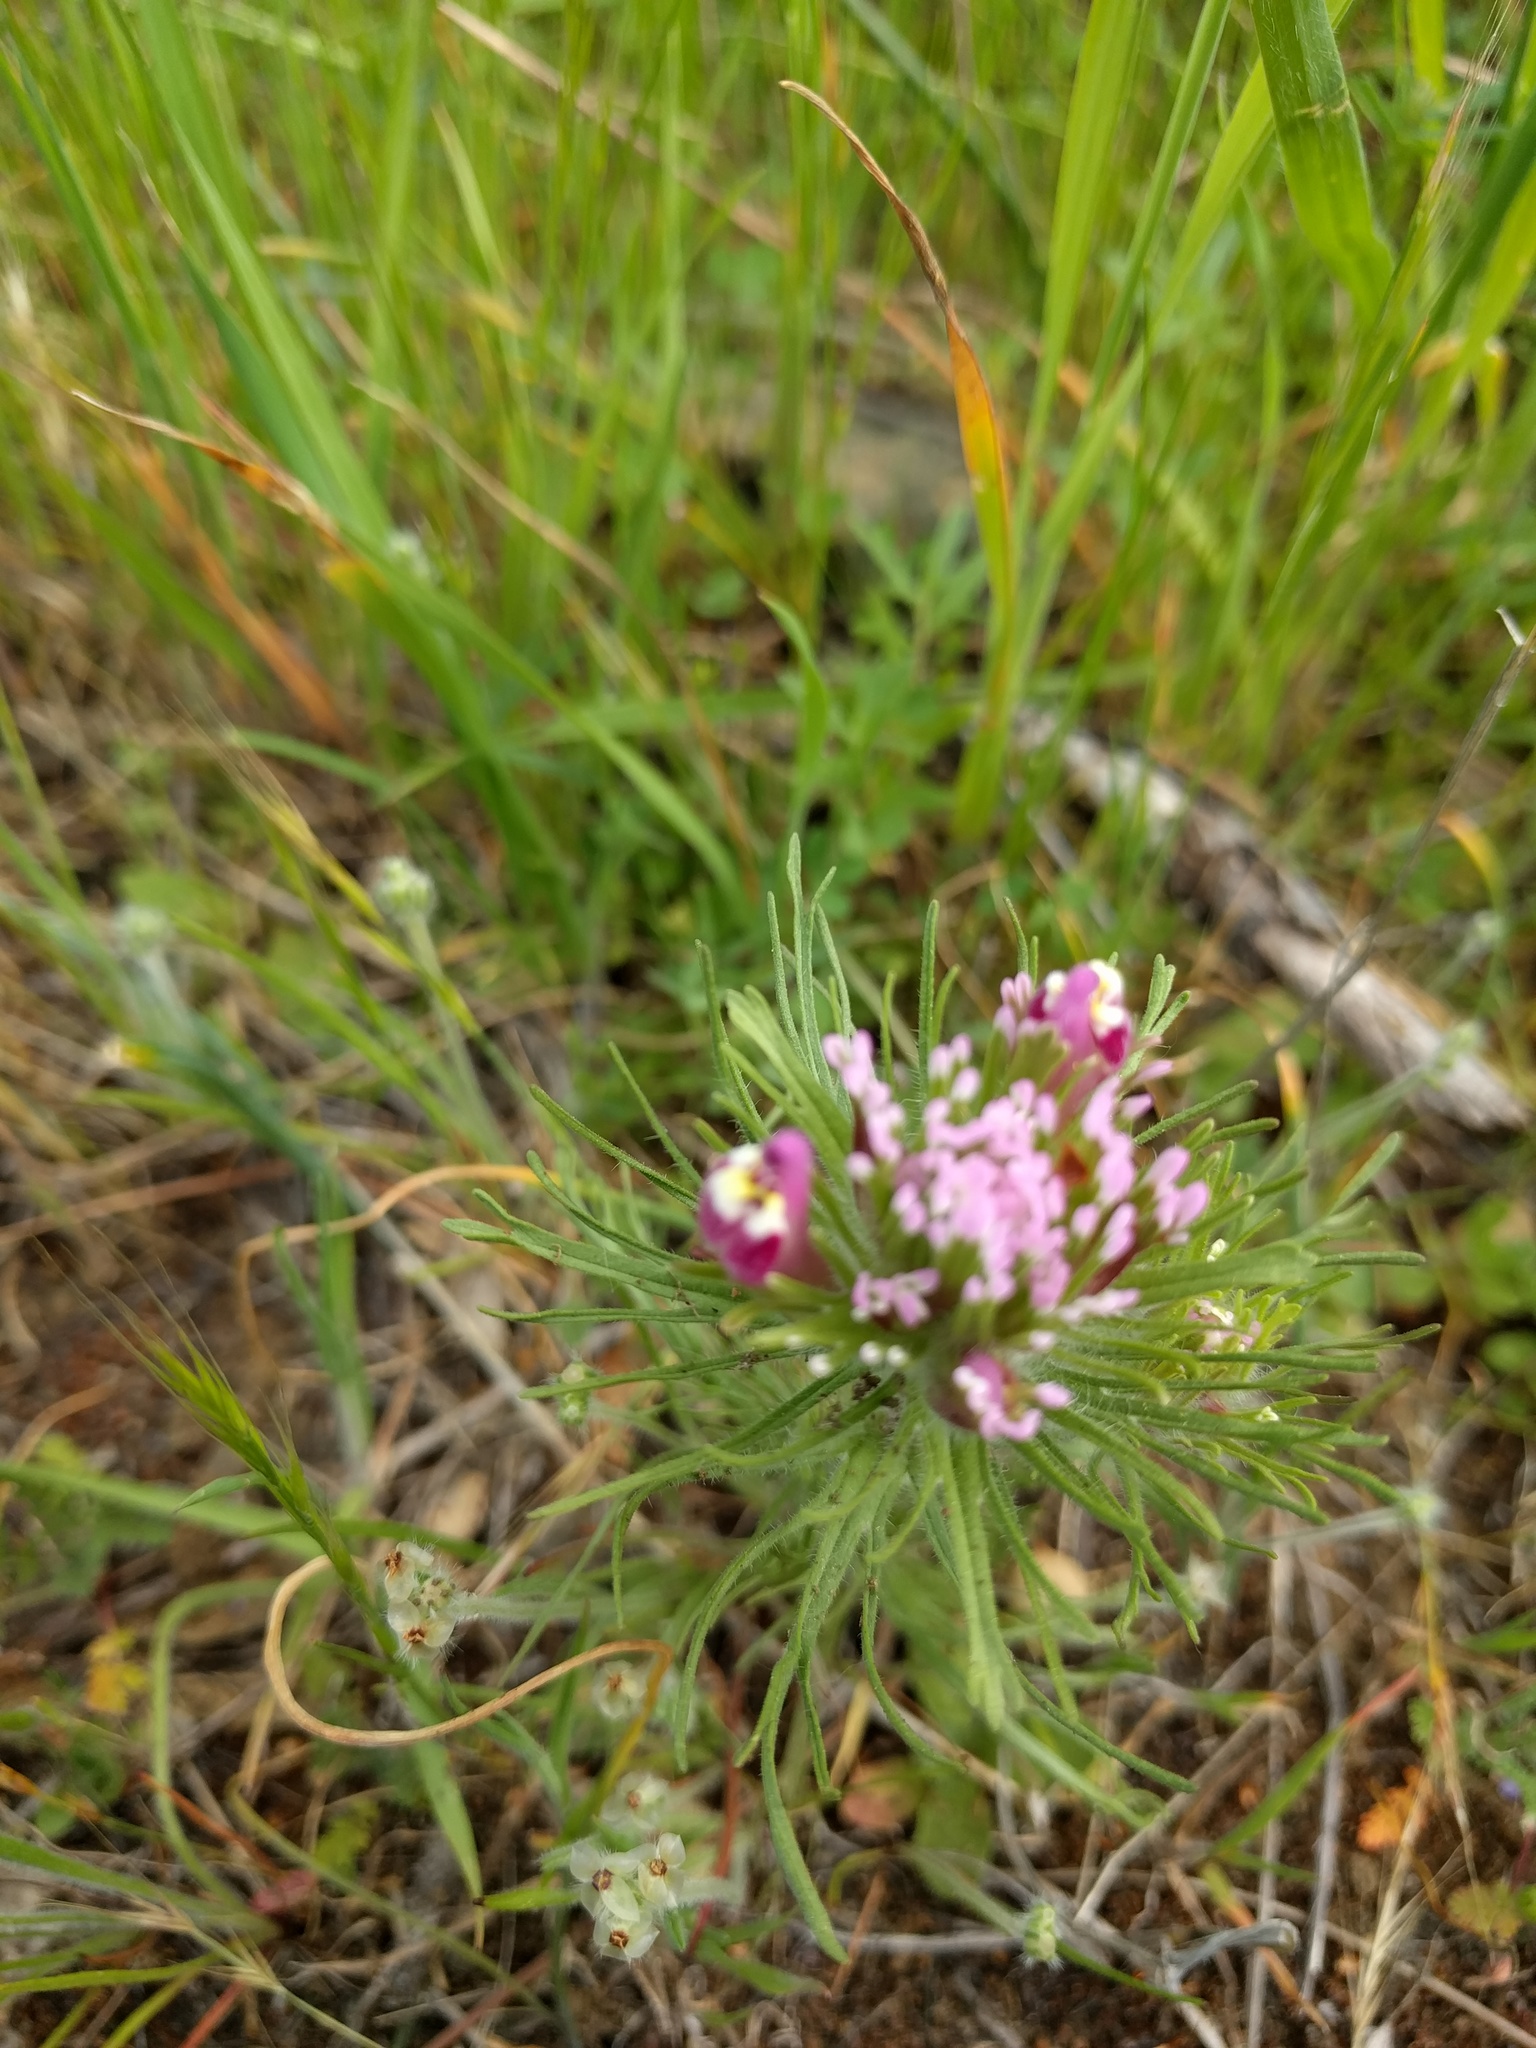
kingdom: Plantae
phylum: Tracheophyta
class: Magnoliopsida
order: Lamiales
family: Orobanchaceae
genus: Castilleja
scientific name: Castilleja exserta
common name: Purple owl-clover
